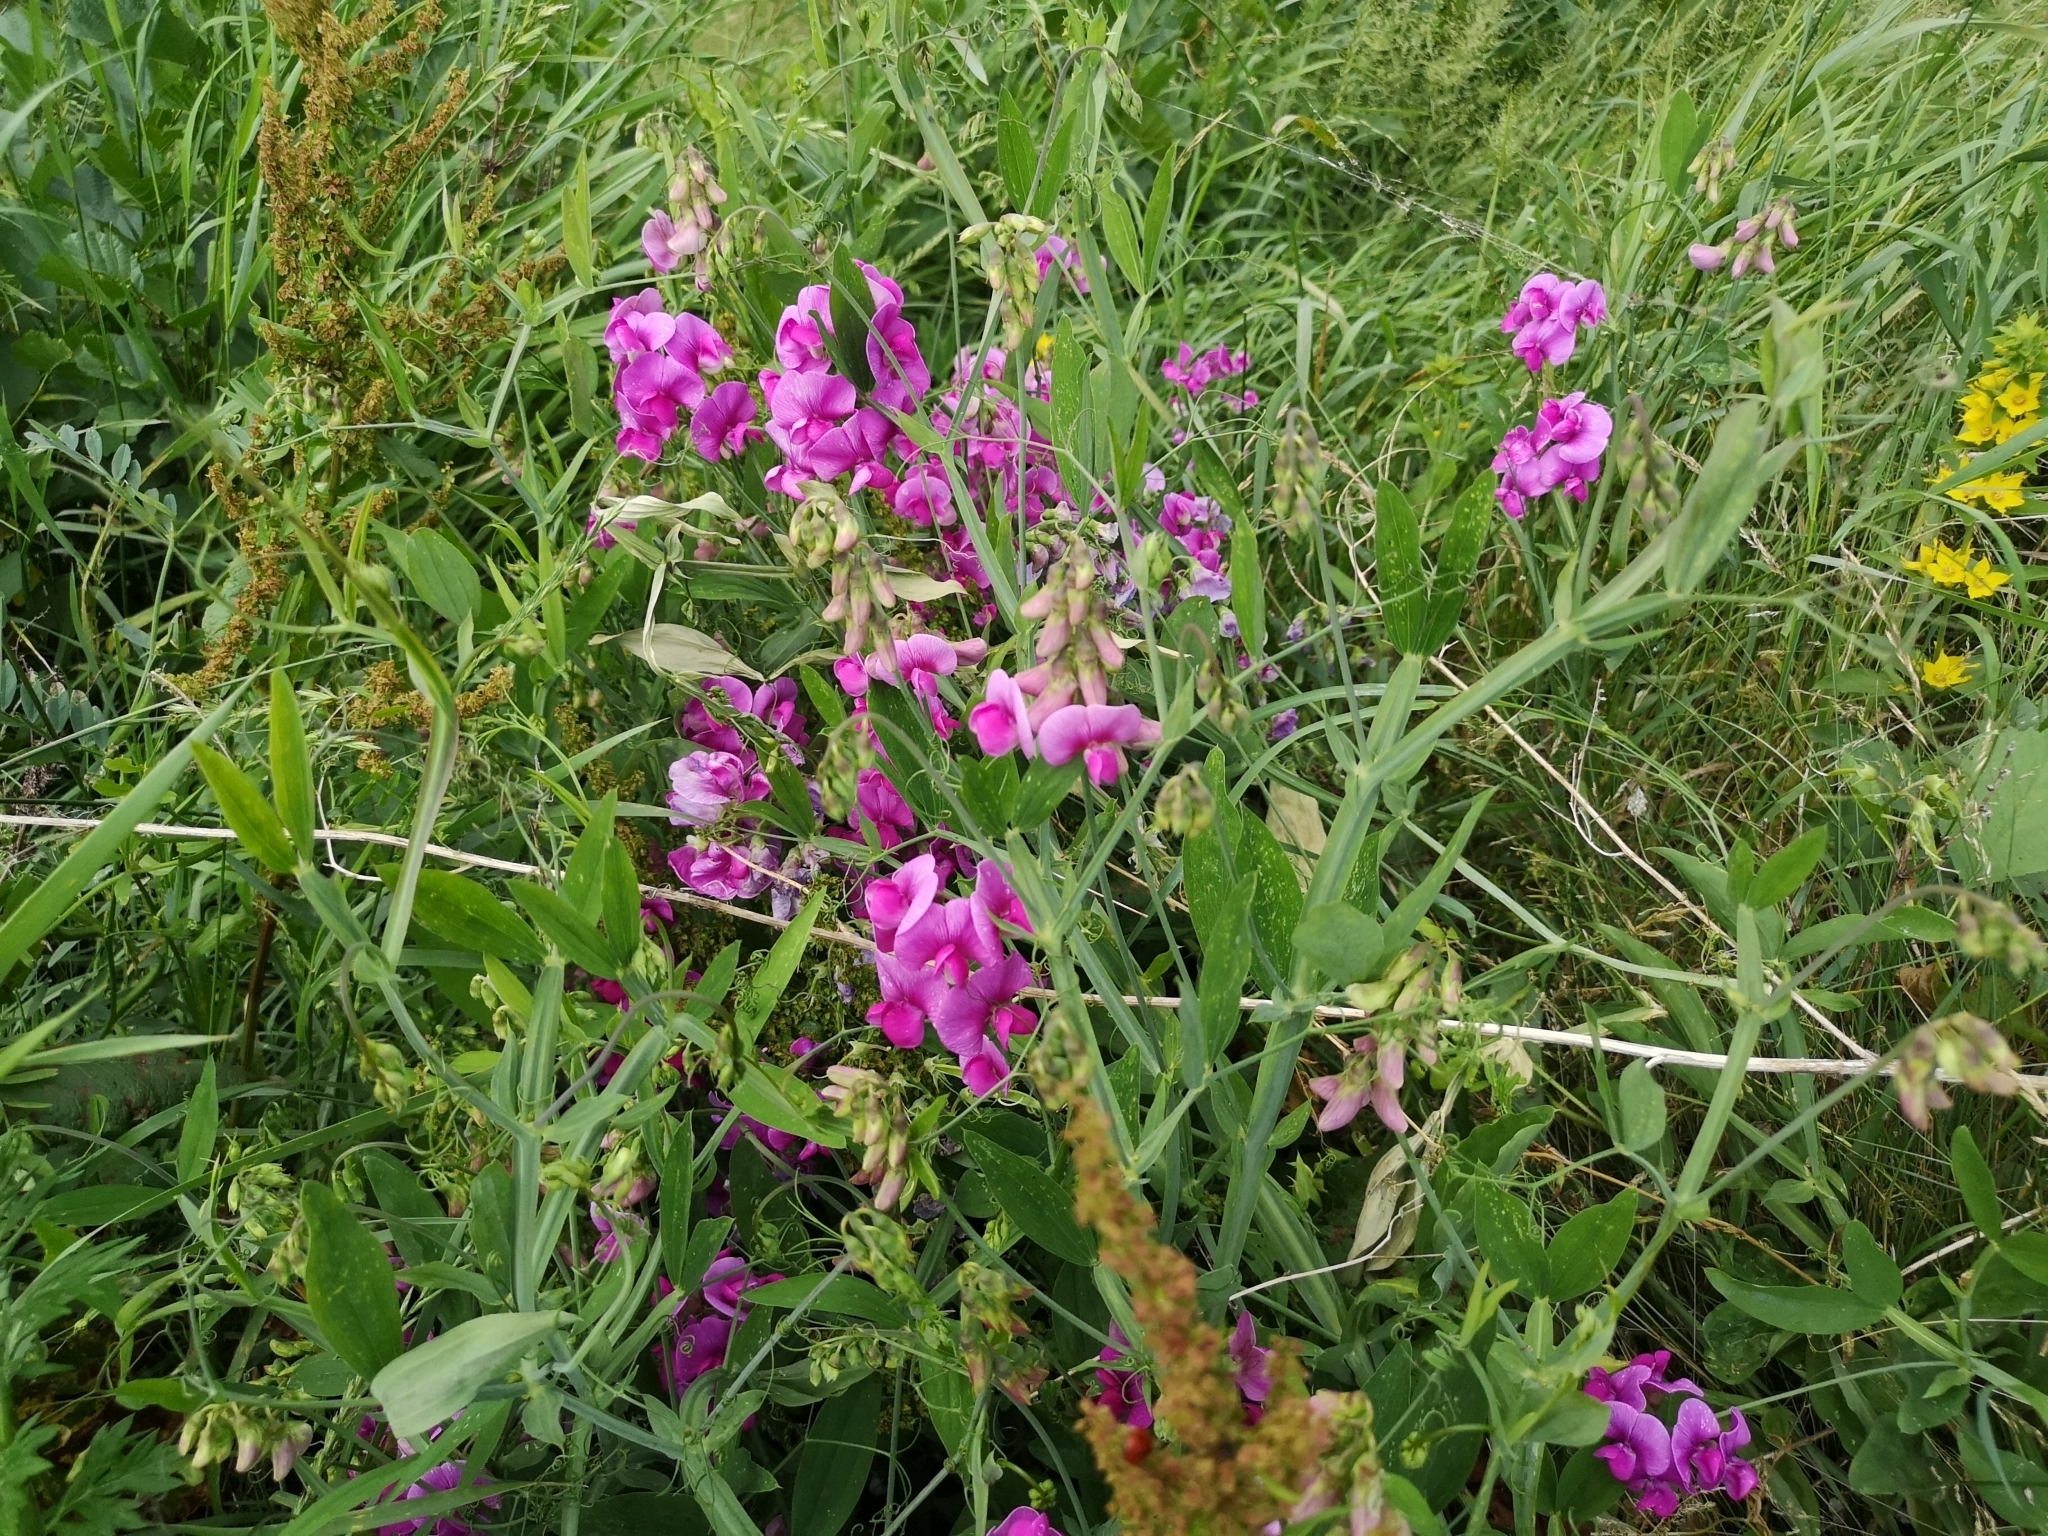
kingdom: Plantae
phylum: Tracheophyta
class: Magnoliopsida
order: Fabales
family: Fabaceae
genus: Lathyrus
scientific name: Lathyrus latifolius
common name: Perennial pea
